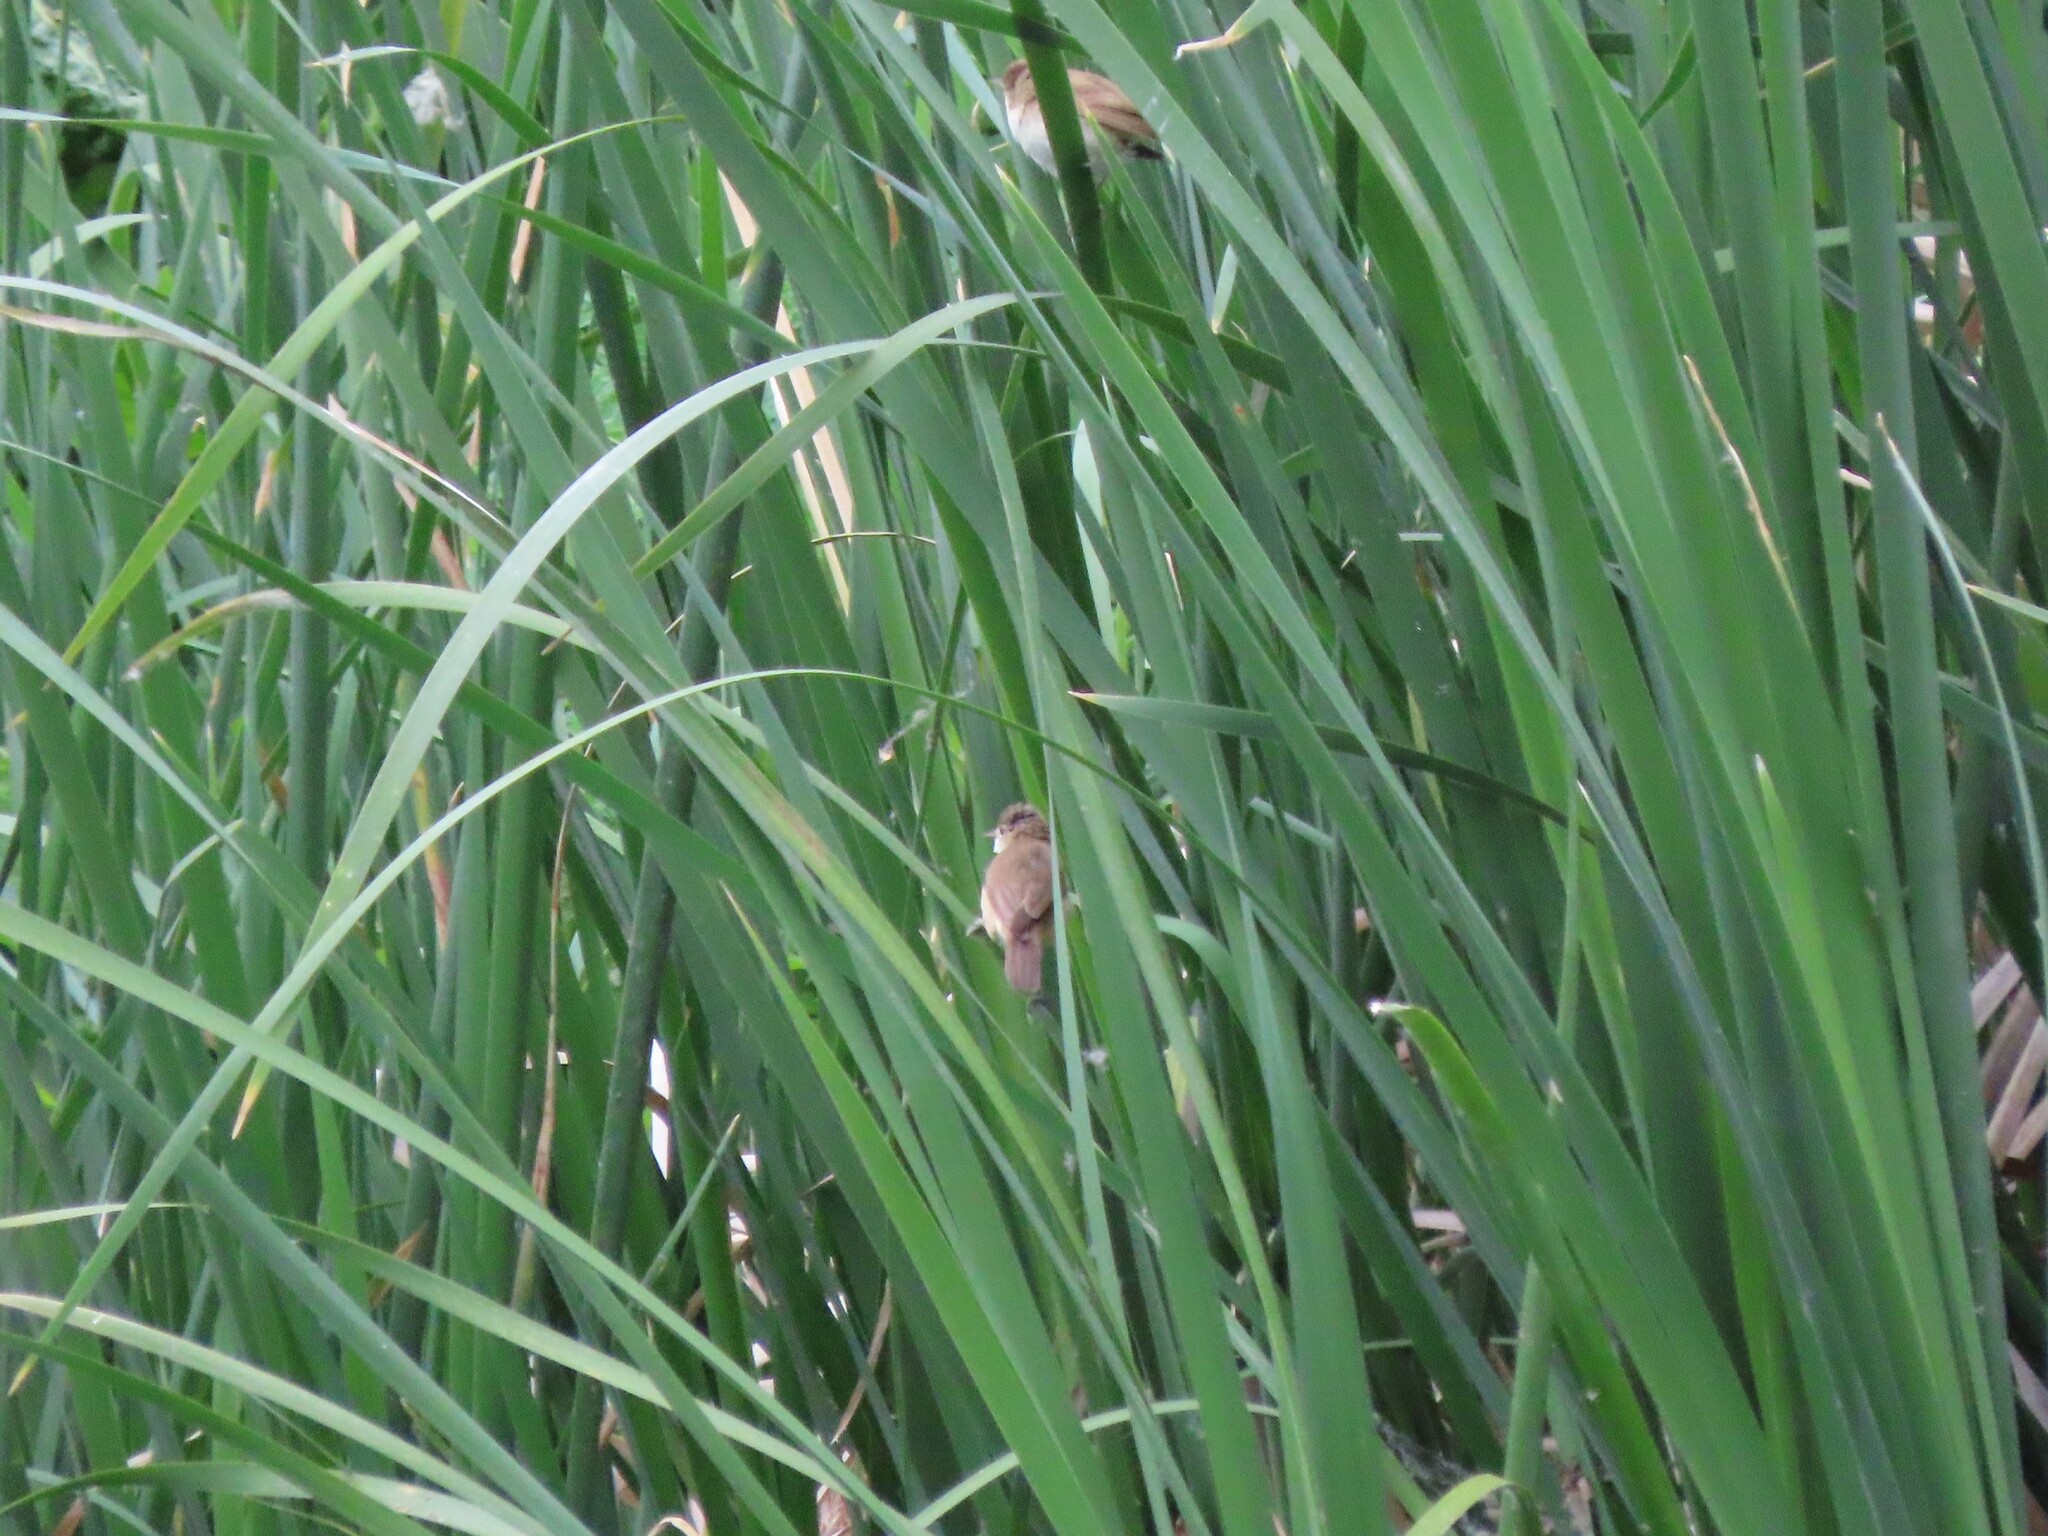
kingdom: Animalia
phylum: Chordata
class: Aves
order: Passeriformes
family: Acrocephalidae
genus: Acrocephalus
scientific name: Acrocephalus scirpaceus
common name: Eurasian reed warbler
